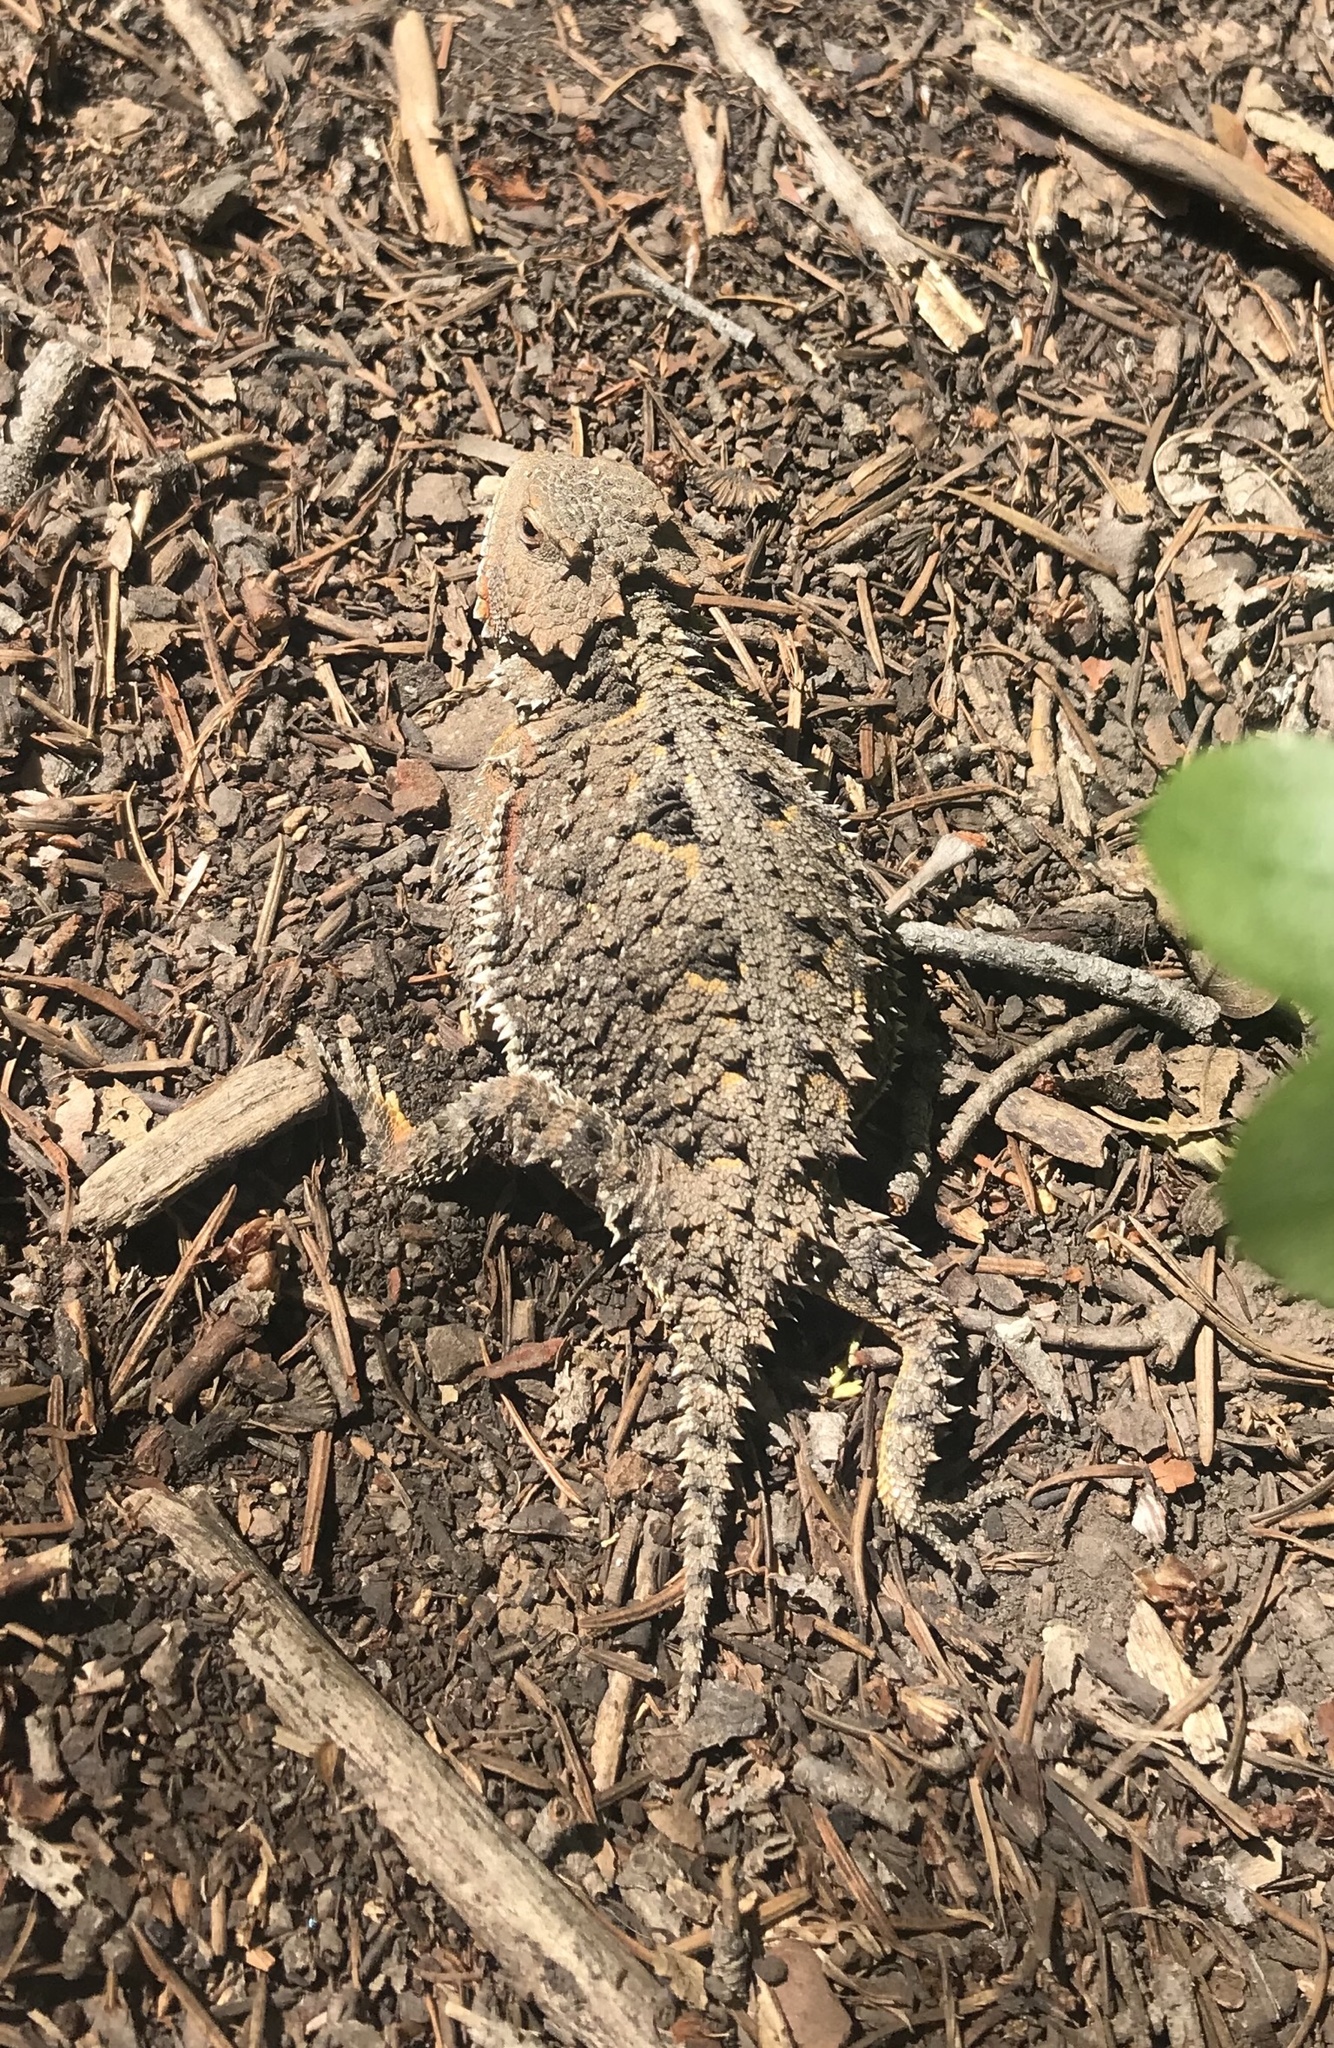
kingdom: Animalia
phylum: Chordata
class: Squamata
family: Phrynosomatidae
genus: Phrynosoma
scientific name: Phrynosoma hernandesi
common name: Greater short-horned lizard
